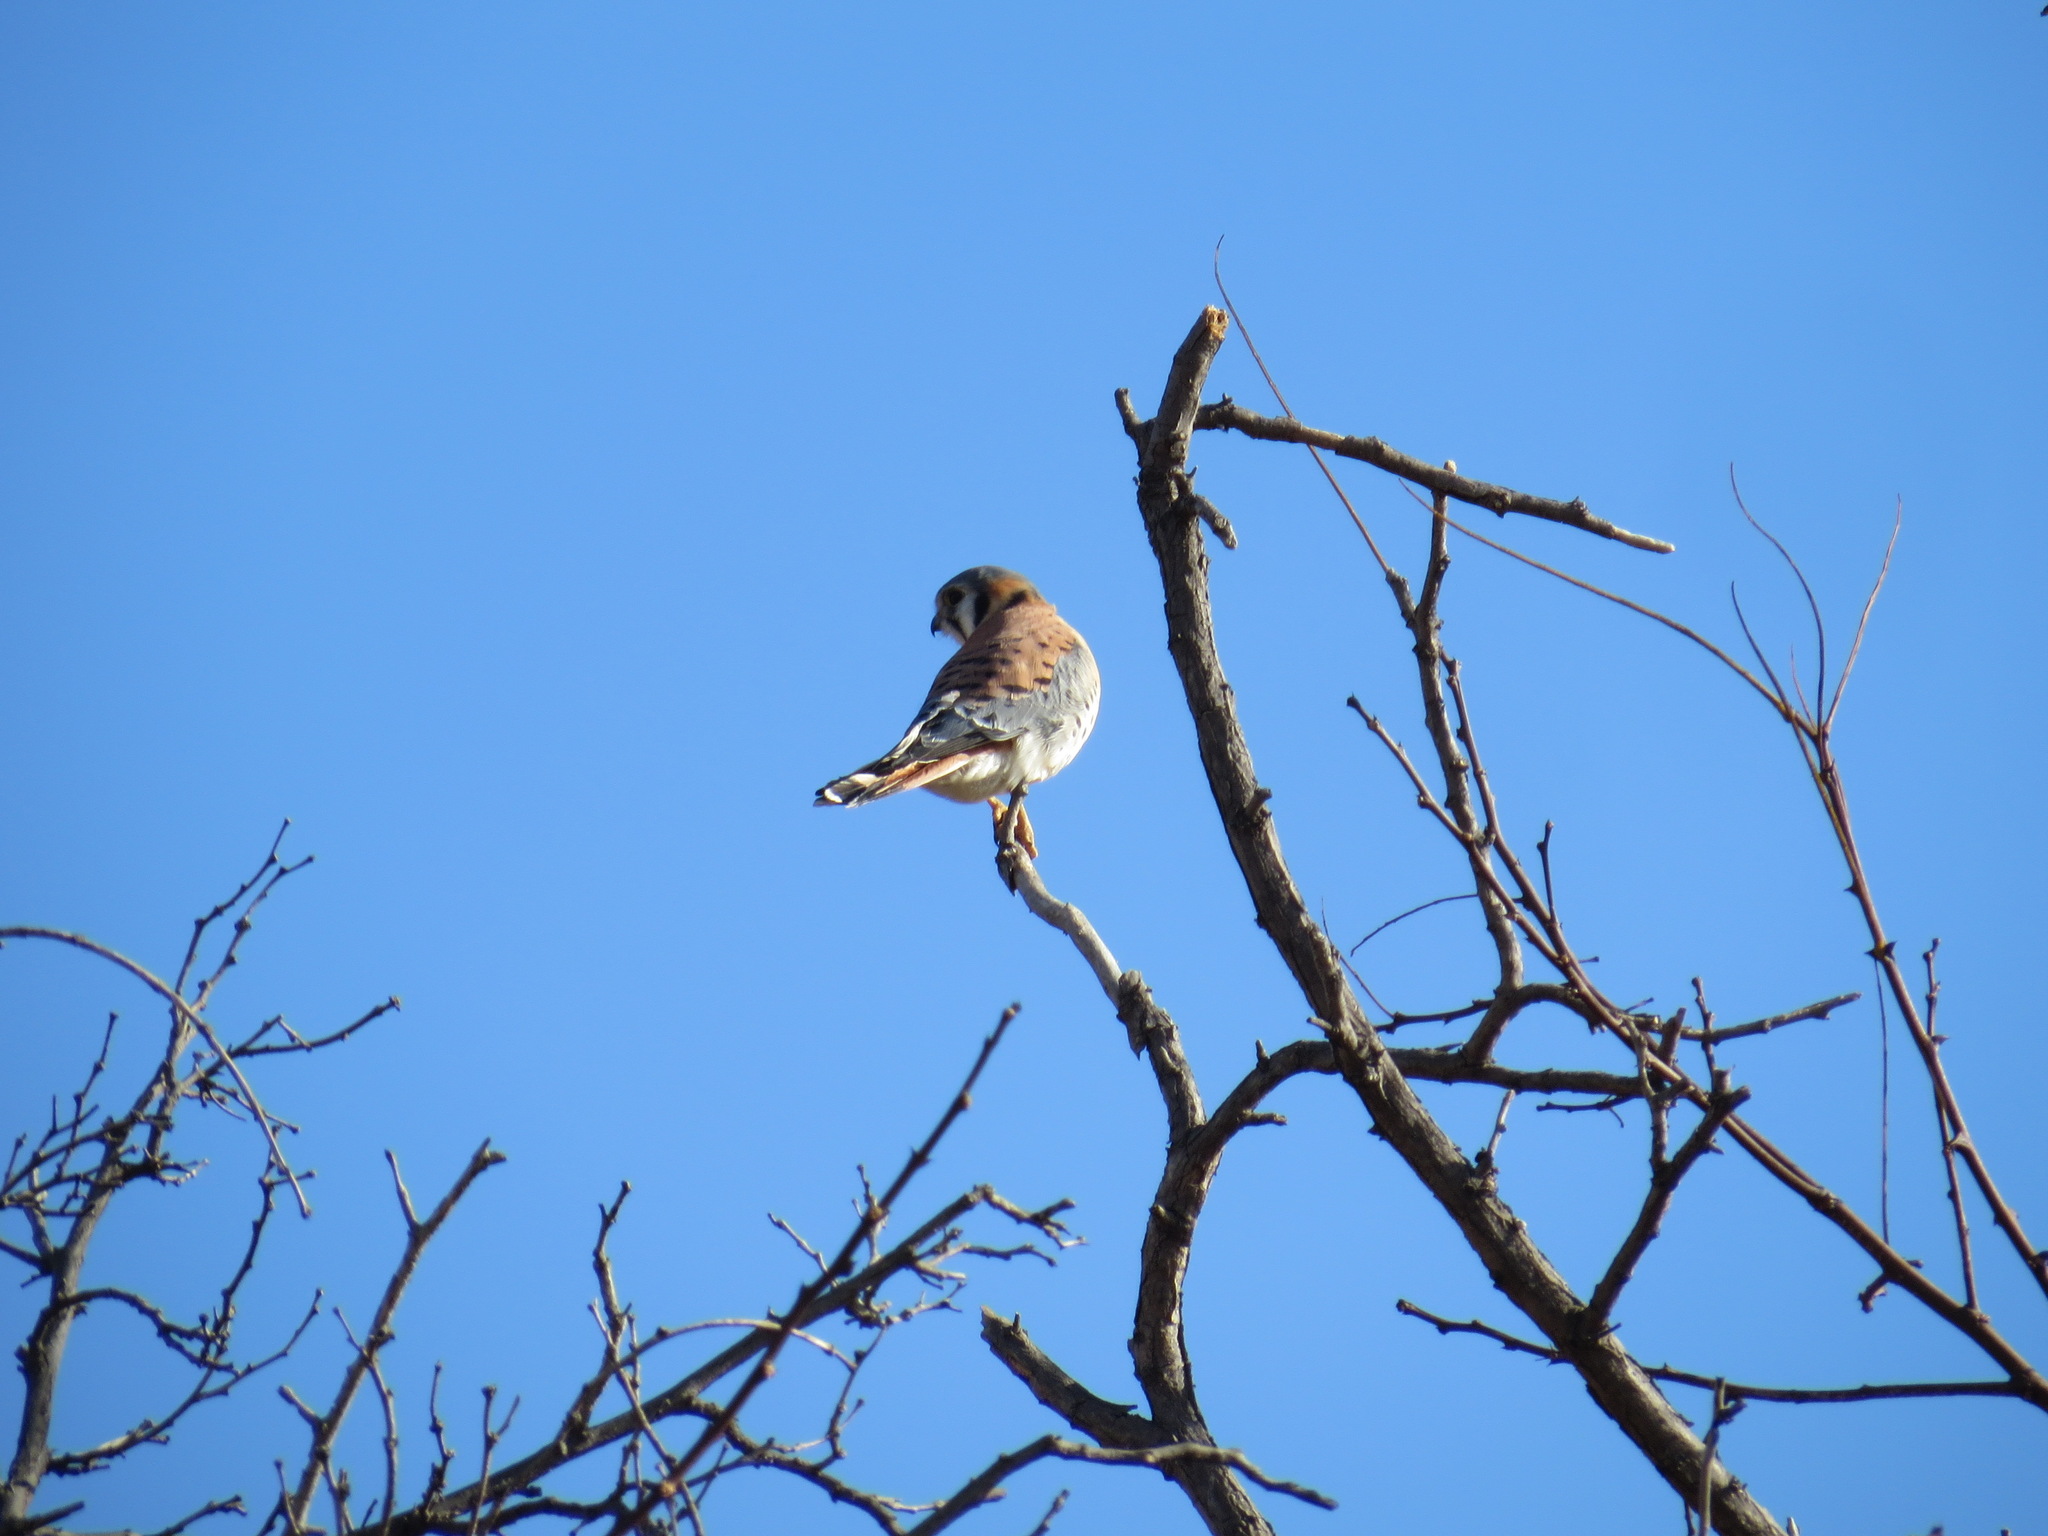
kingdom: Animalia
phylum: Chordata
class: Aves
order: Falconiformes
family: Falconidae
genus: Falco
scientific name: Falco sparverius
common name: American kestrel
